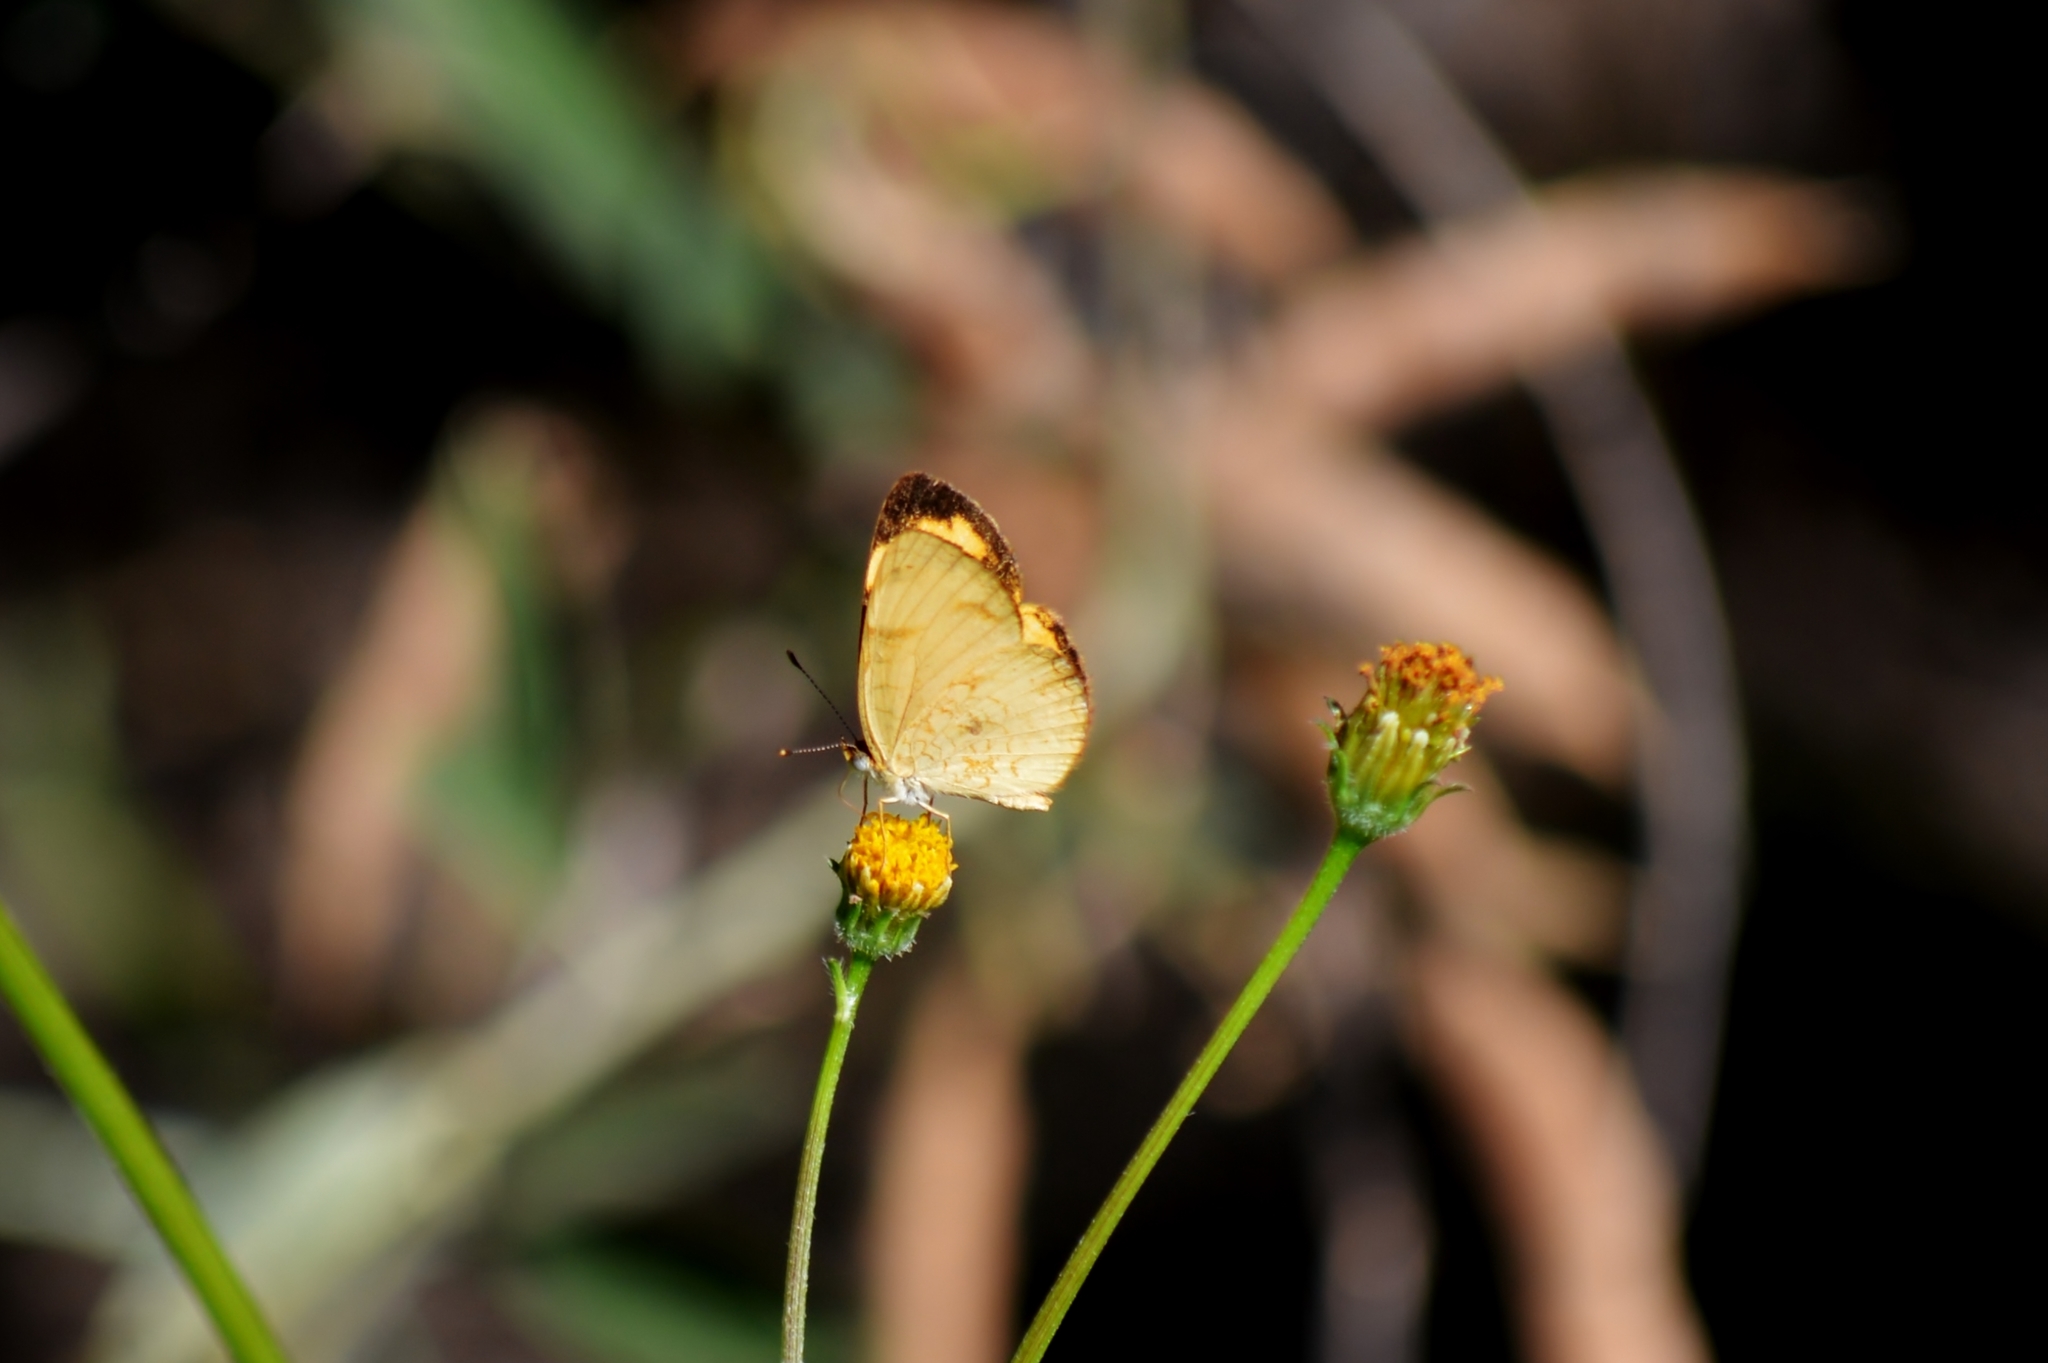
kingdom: Animalia
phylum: Arthropoda
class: Insecta
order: Lepidoptera
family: Nymphalidae
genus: Tegosa
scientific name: Tegosa claudina
